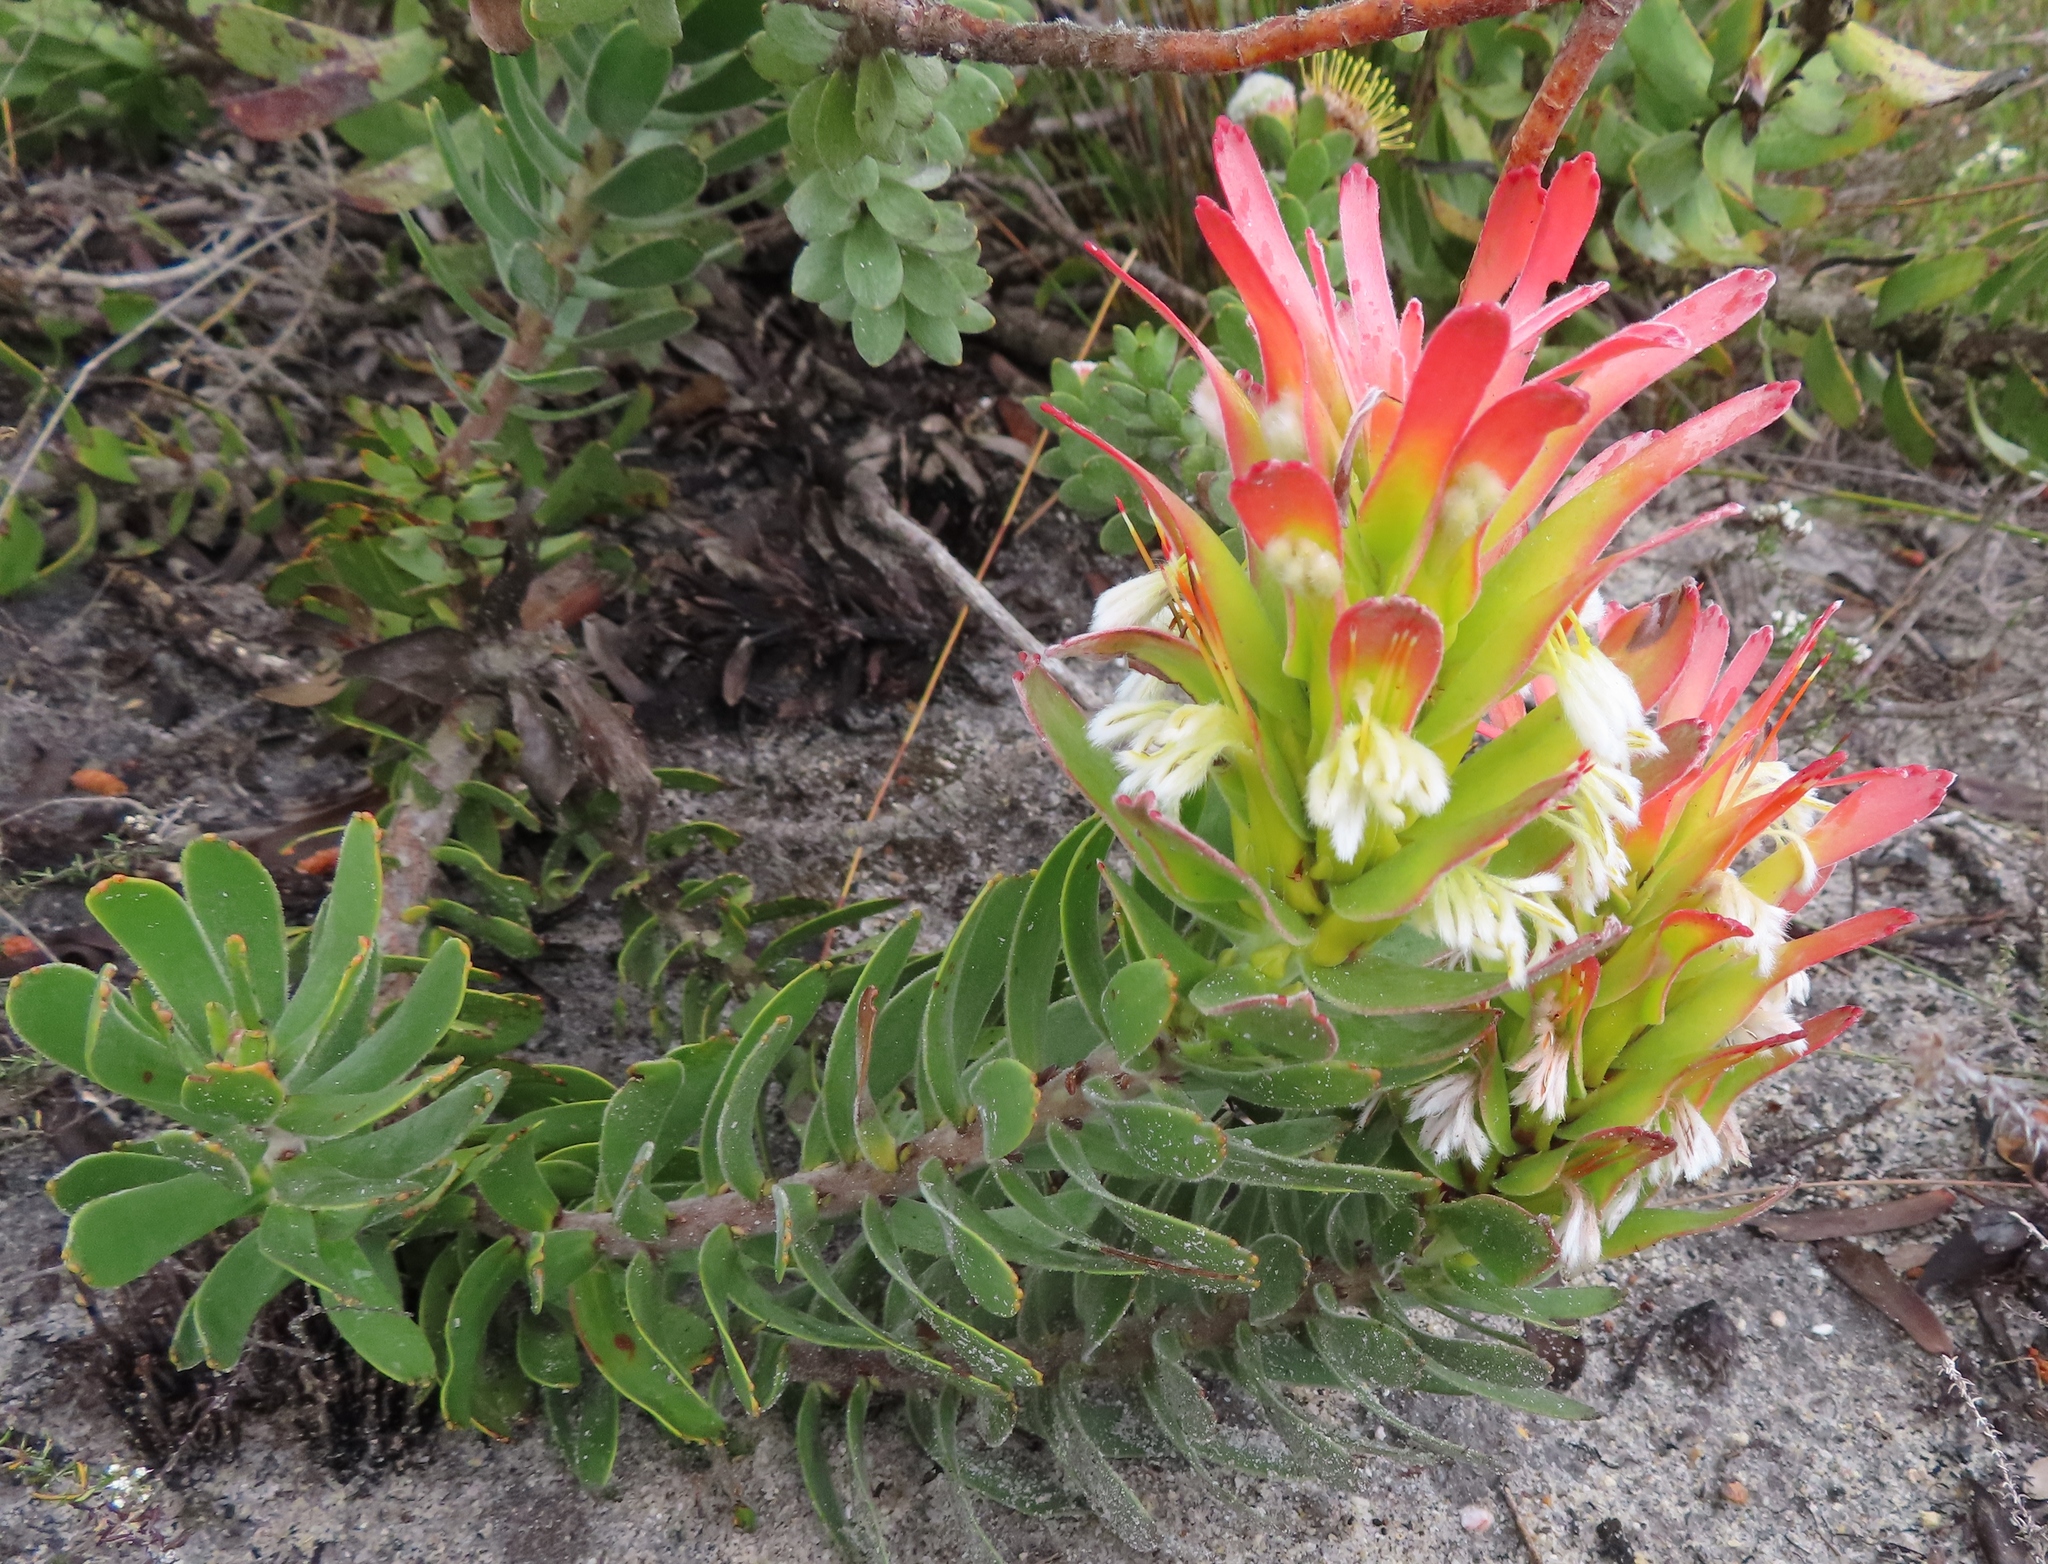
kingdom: Plantae
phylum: Tracheophyta
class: Magnoliopsida
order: Proteales
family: Proteaceae
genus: Mimetes
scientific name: Mimetes cucullatus
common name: Common pagoda
